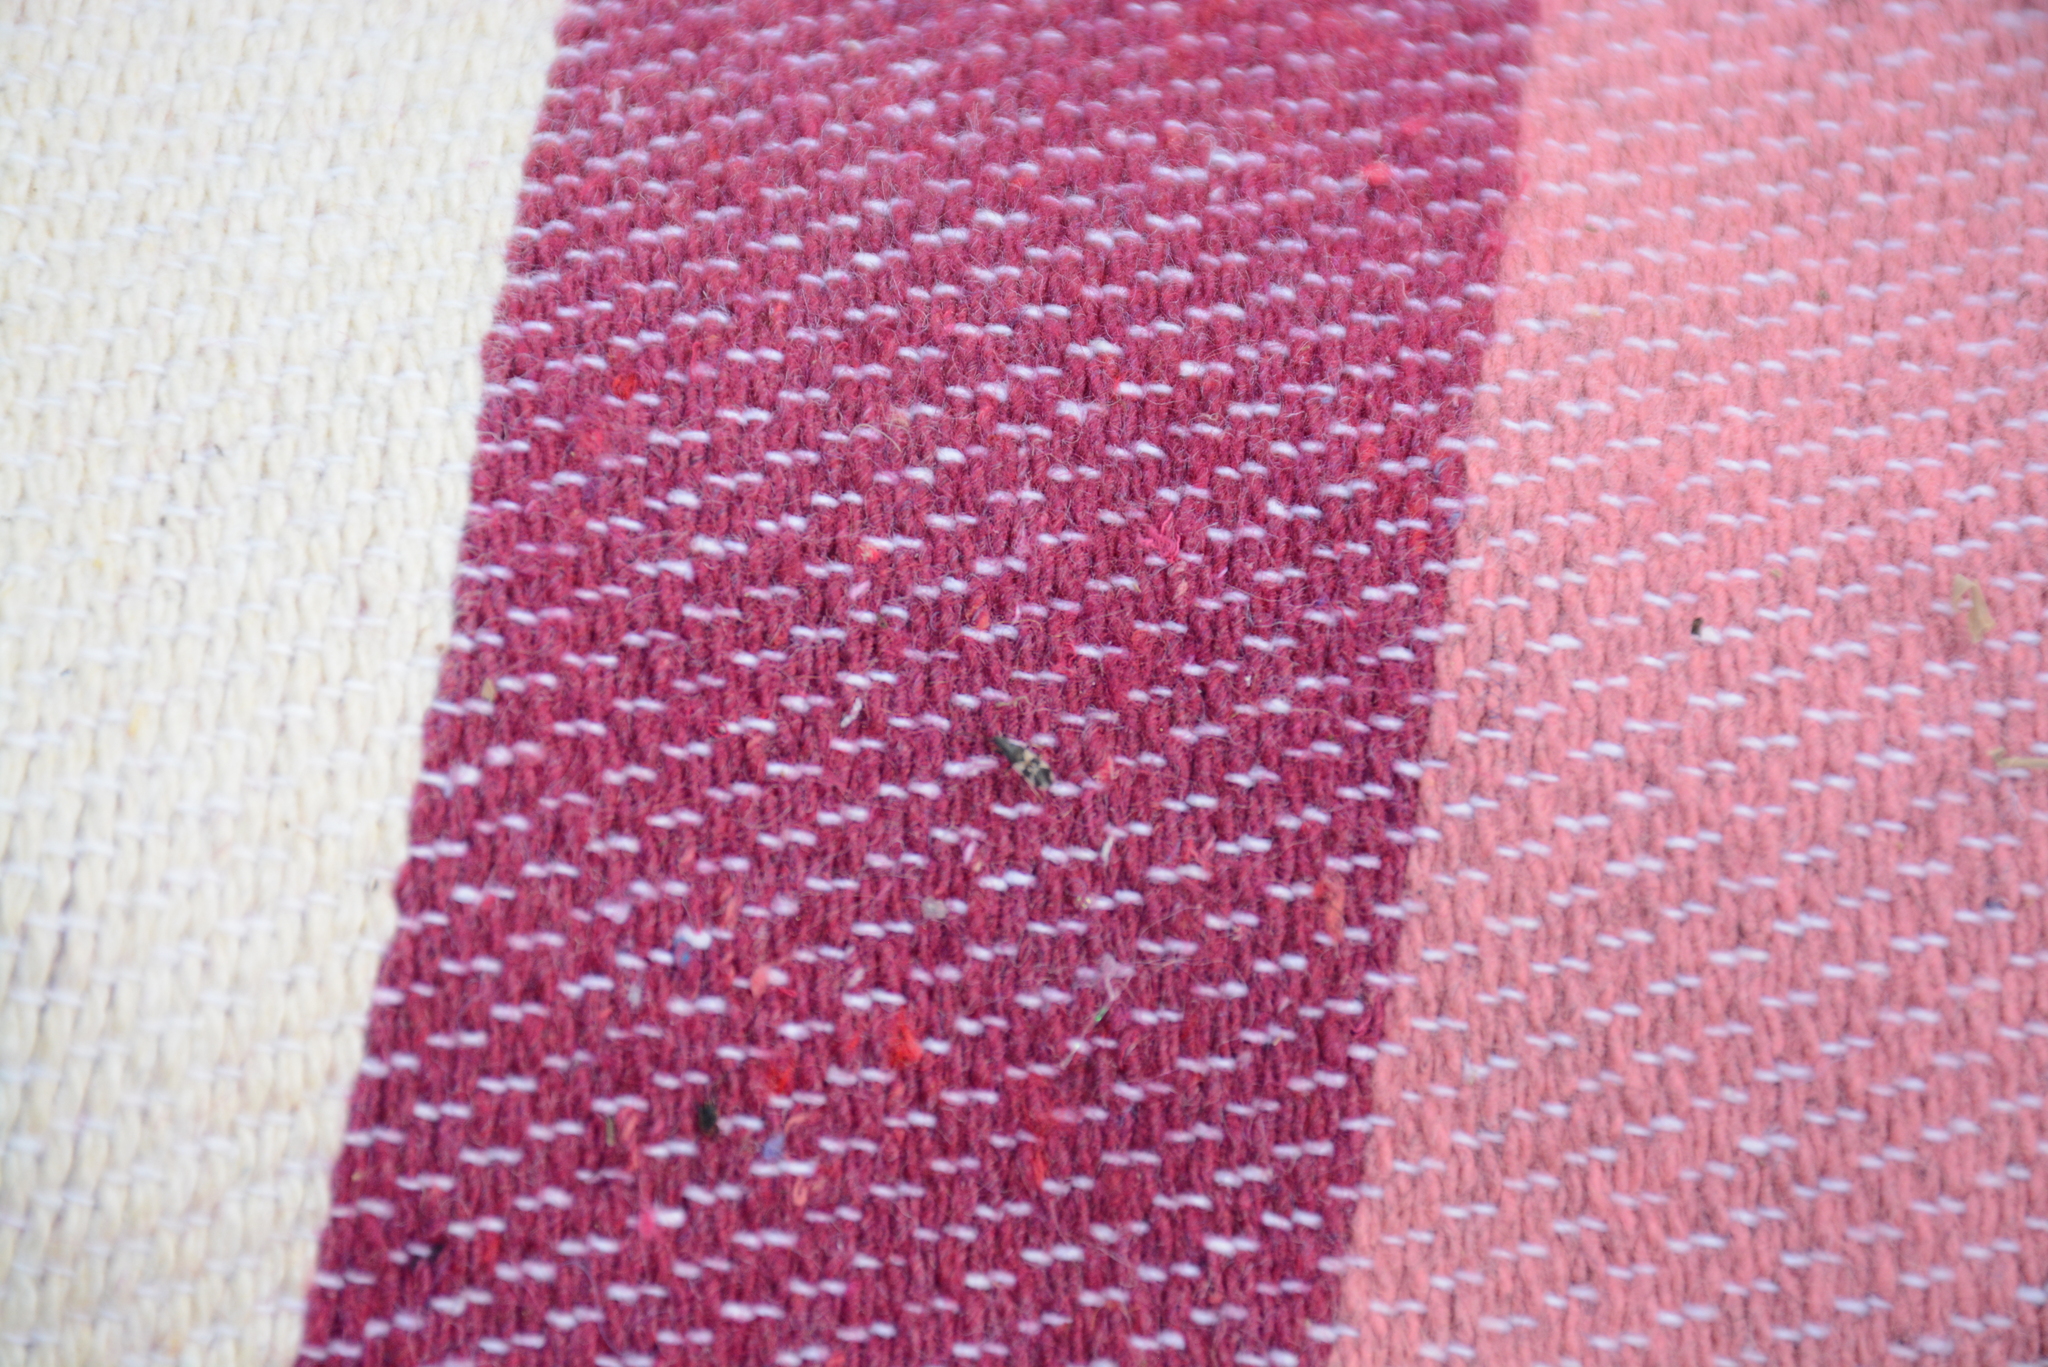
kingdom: Animalia
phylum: Arthropoda
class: Insecta
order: Hemiptera
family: Oxycarenidae
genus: Macroplax
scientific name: Macroplax fasciata
